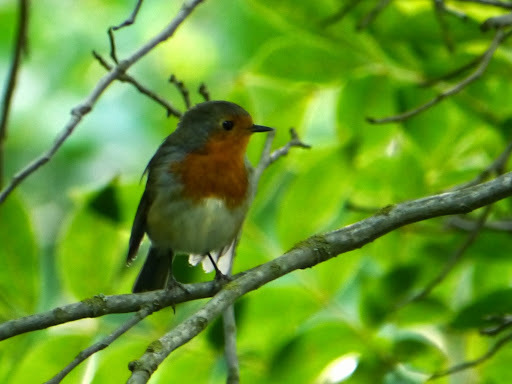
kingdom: Animalia
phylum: Chordata
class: Aves
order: Passeriformes
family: Muscicapidae
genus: Erithacus
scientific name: Erithacus rubecula
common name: European robin
